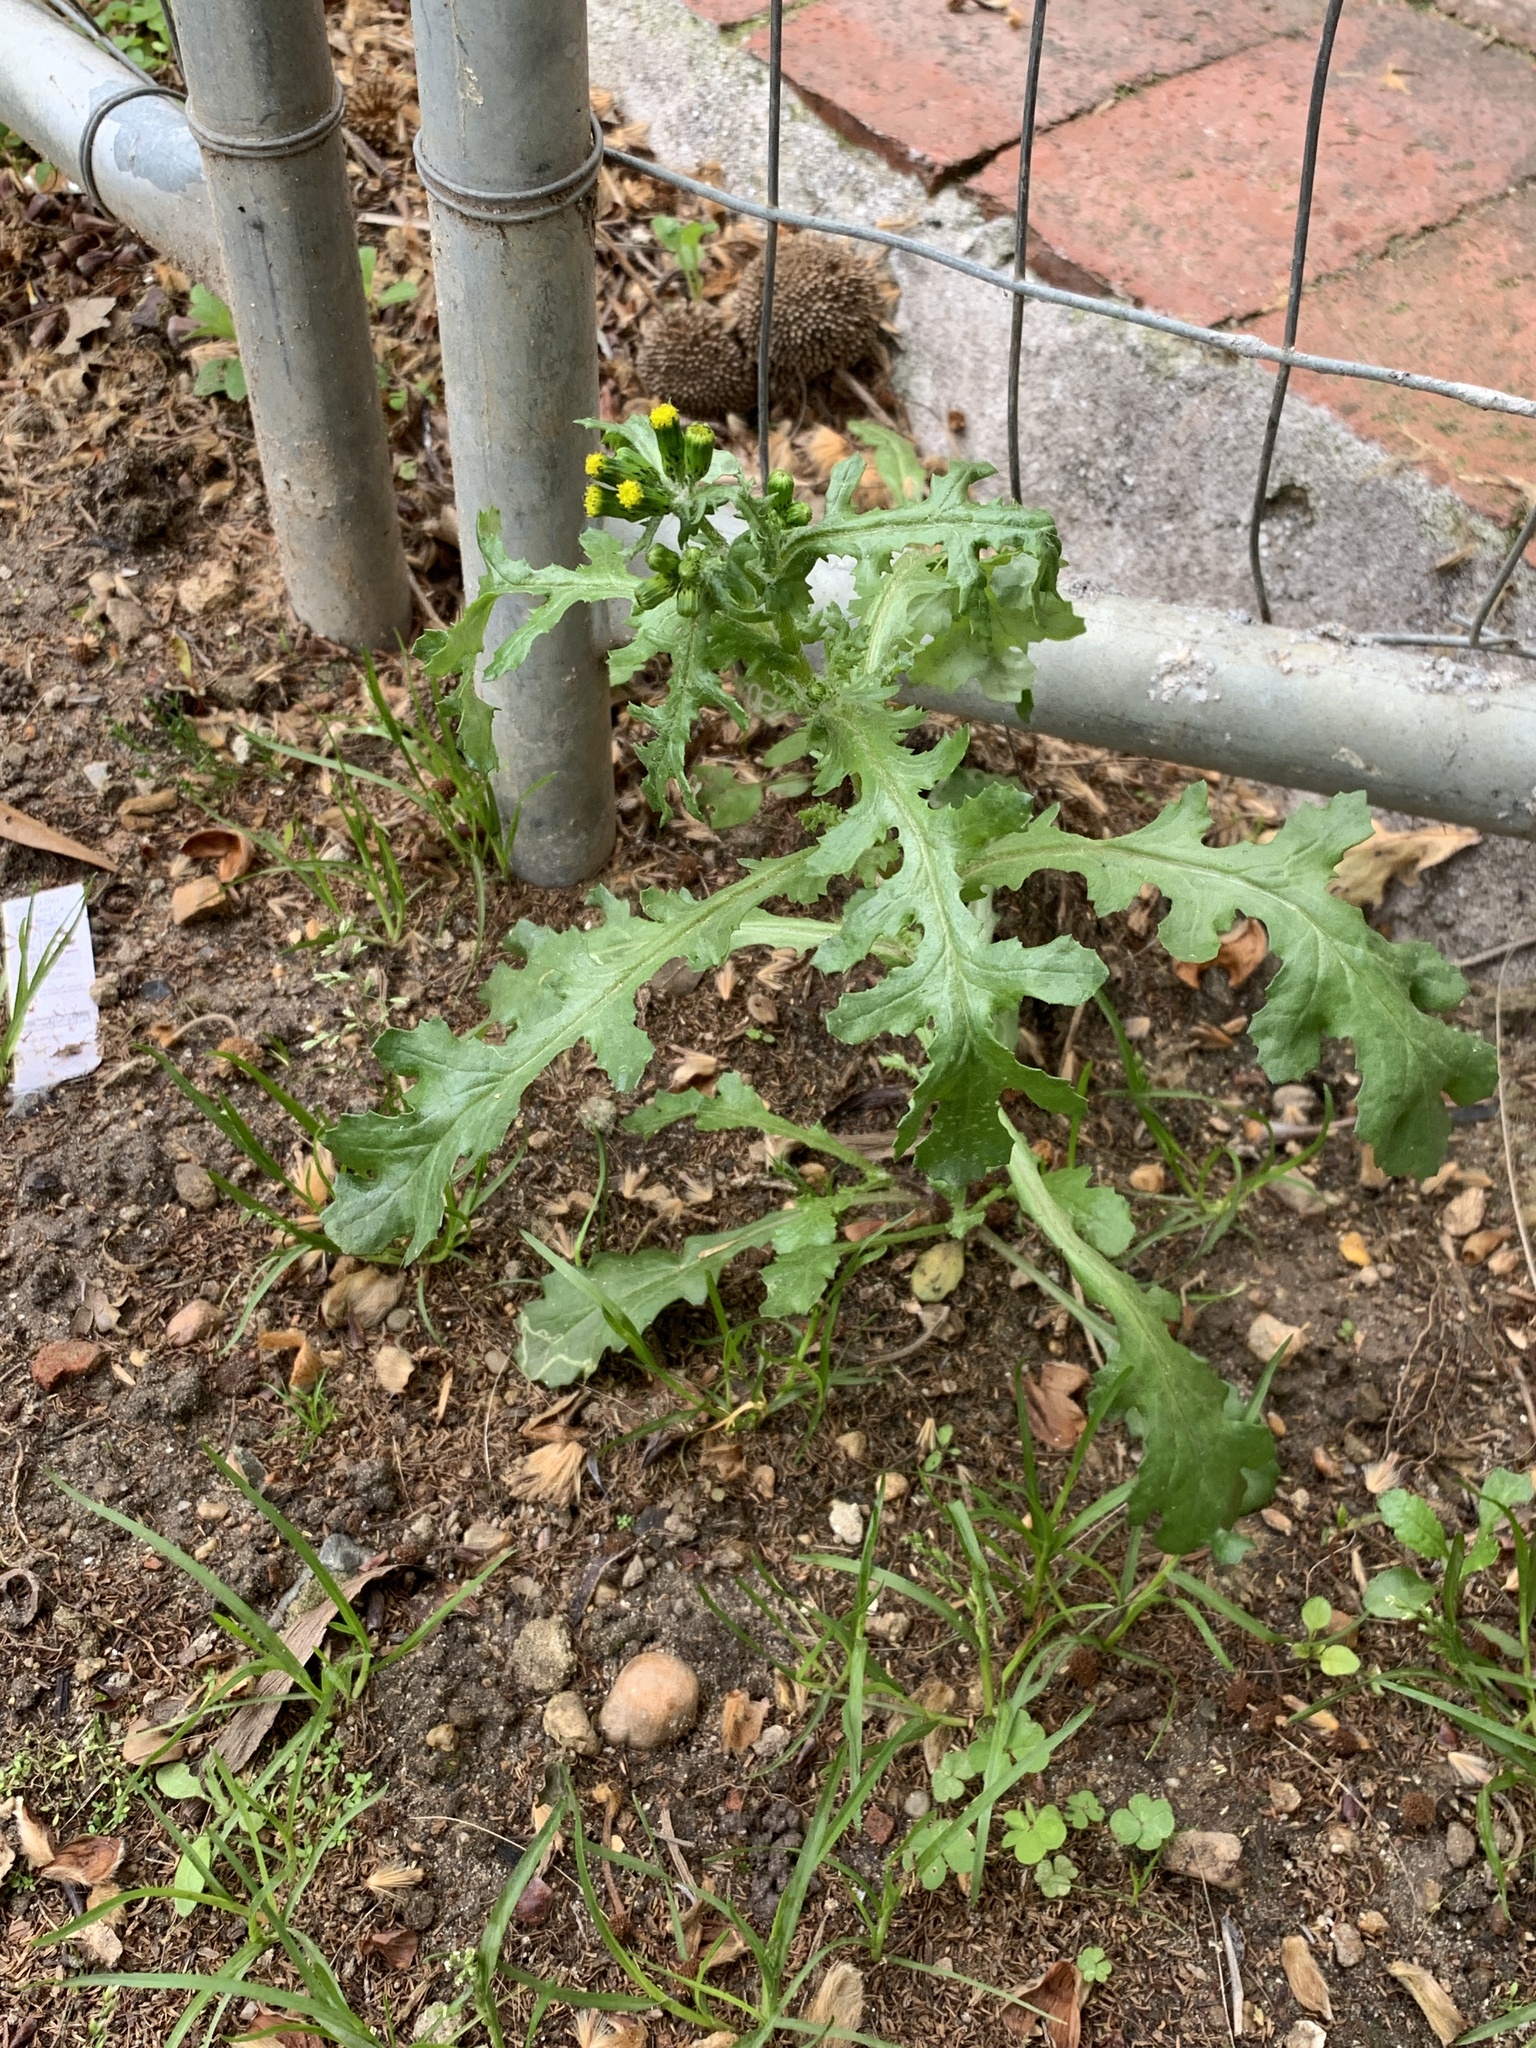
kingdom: Plantae
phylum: Tracheophyta
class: Magnoliopsida
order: Asterales
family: Asteraceae
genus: Senecio
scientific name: Senecio vulgaris
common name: Old-man-in-the-spring
